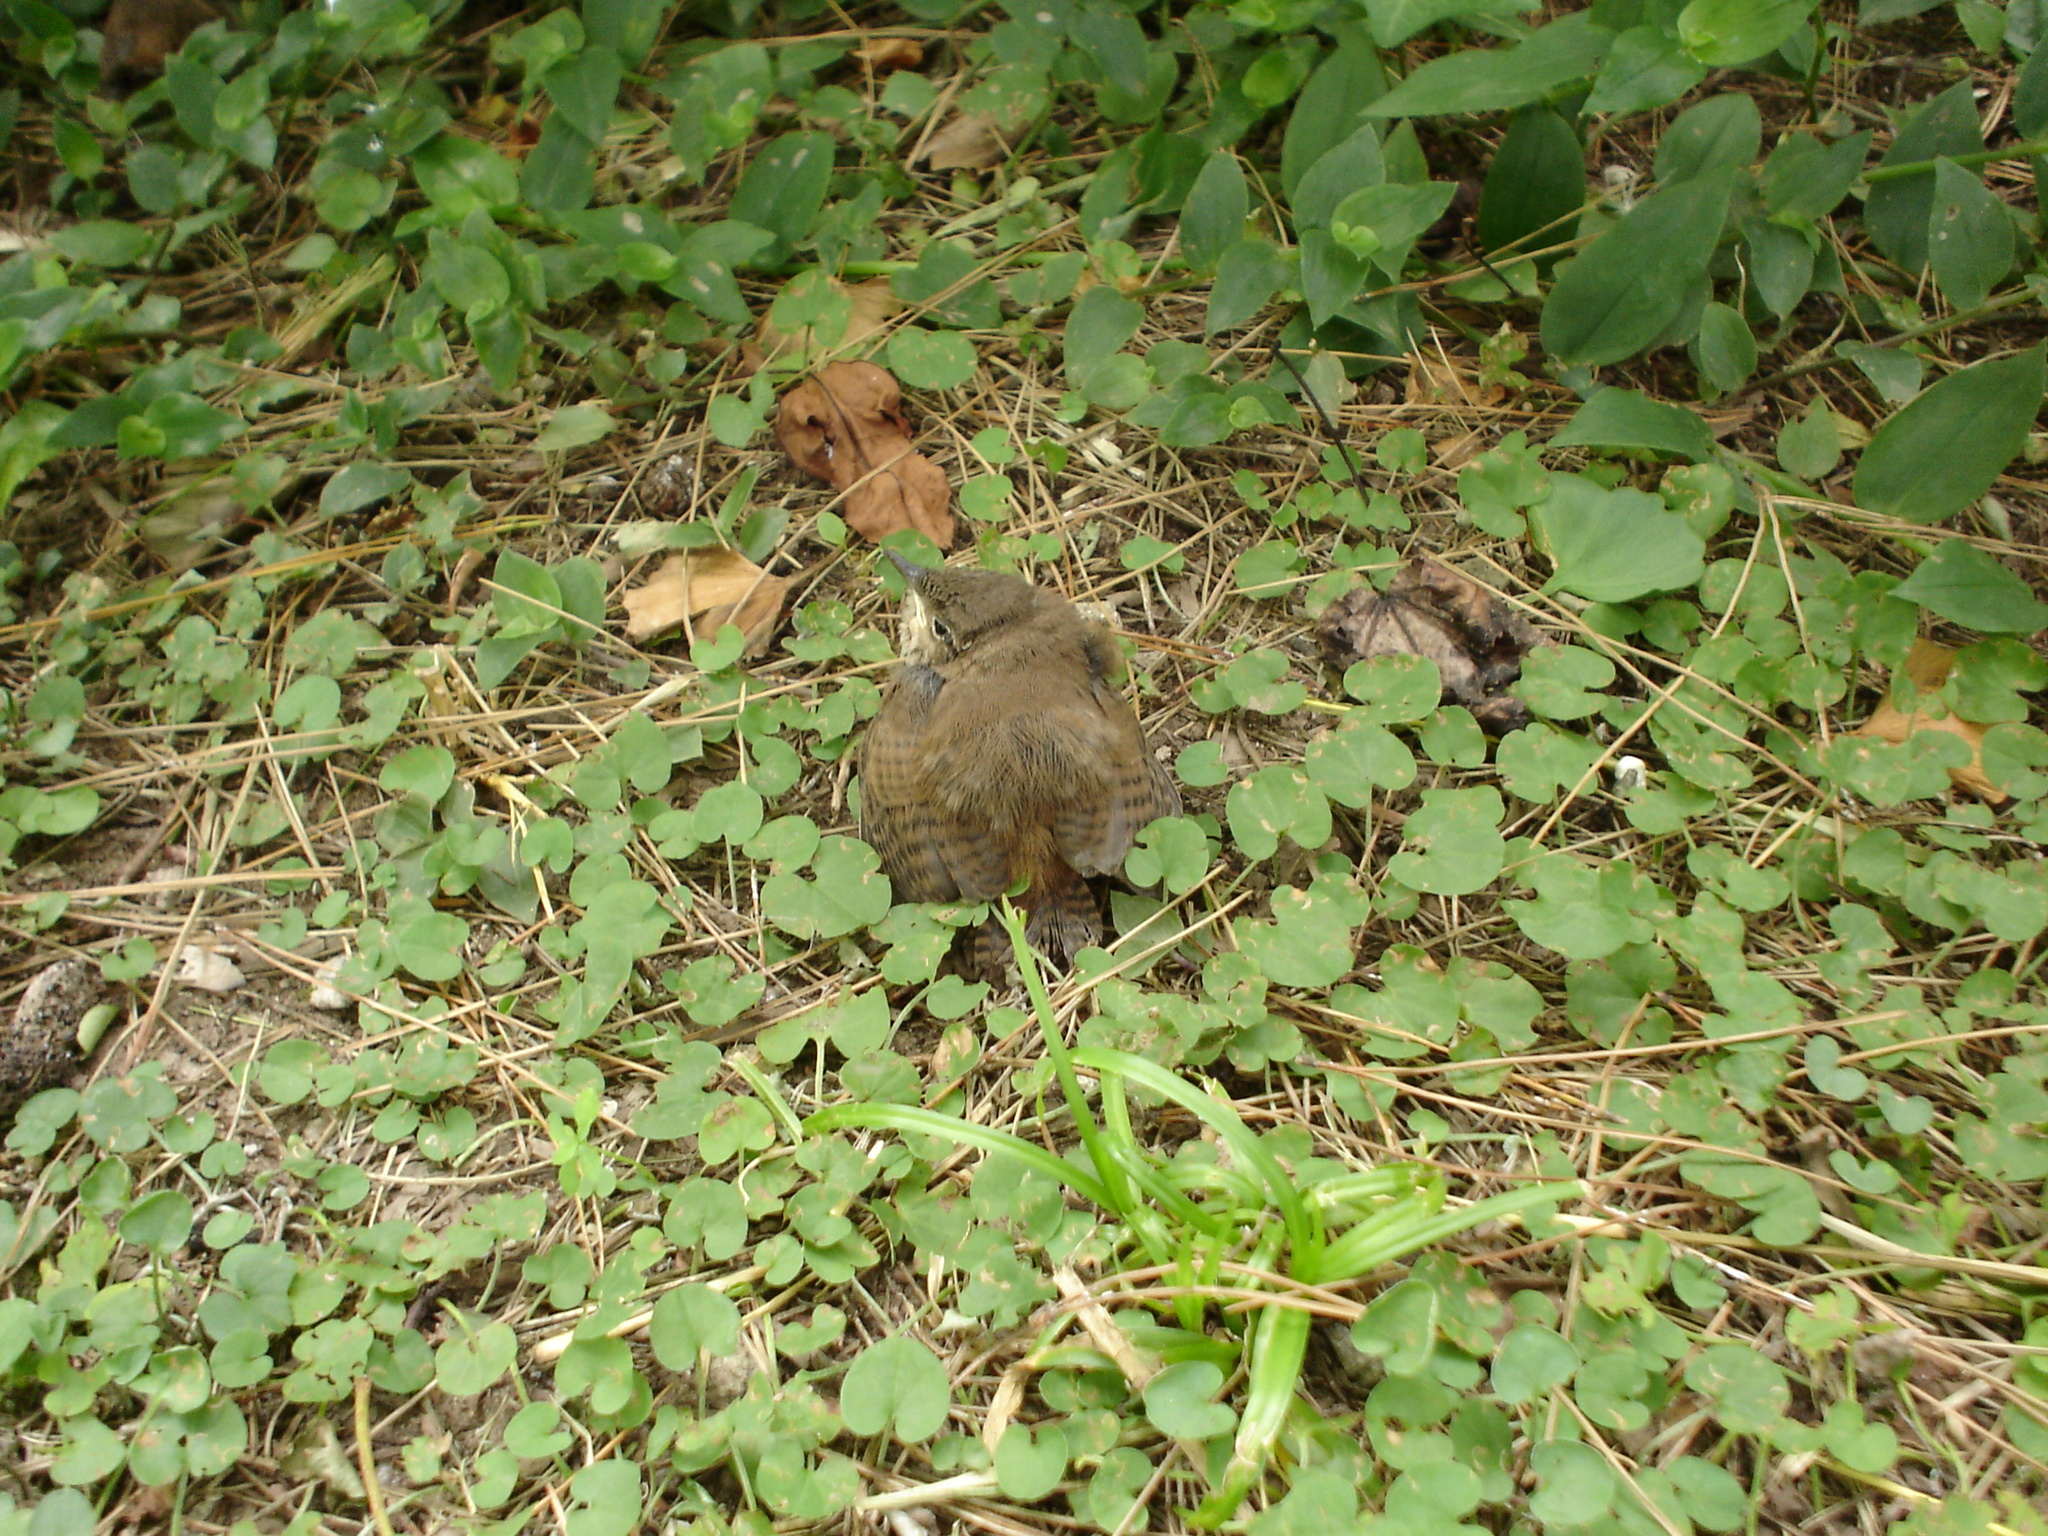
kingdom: Animalia
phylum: Chordata
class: Aves
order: Passeriformes
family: Troglodytidae
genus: Troglodytes
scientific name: Troglodytes aedon
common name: House wren
